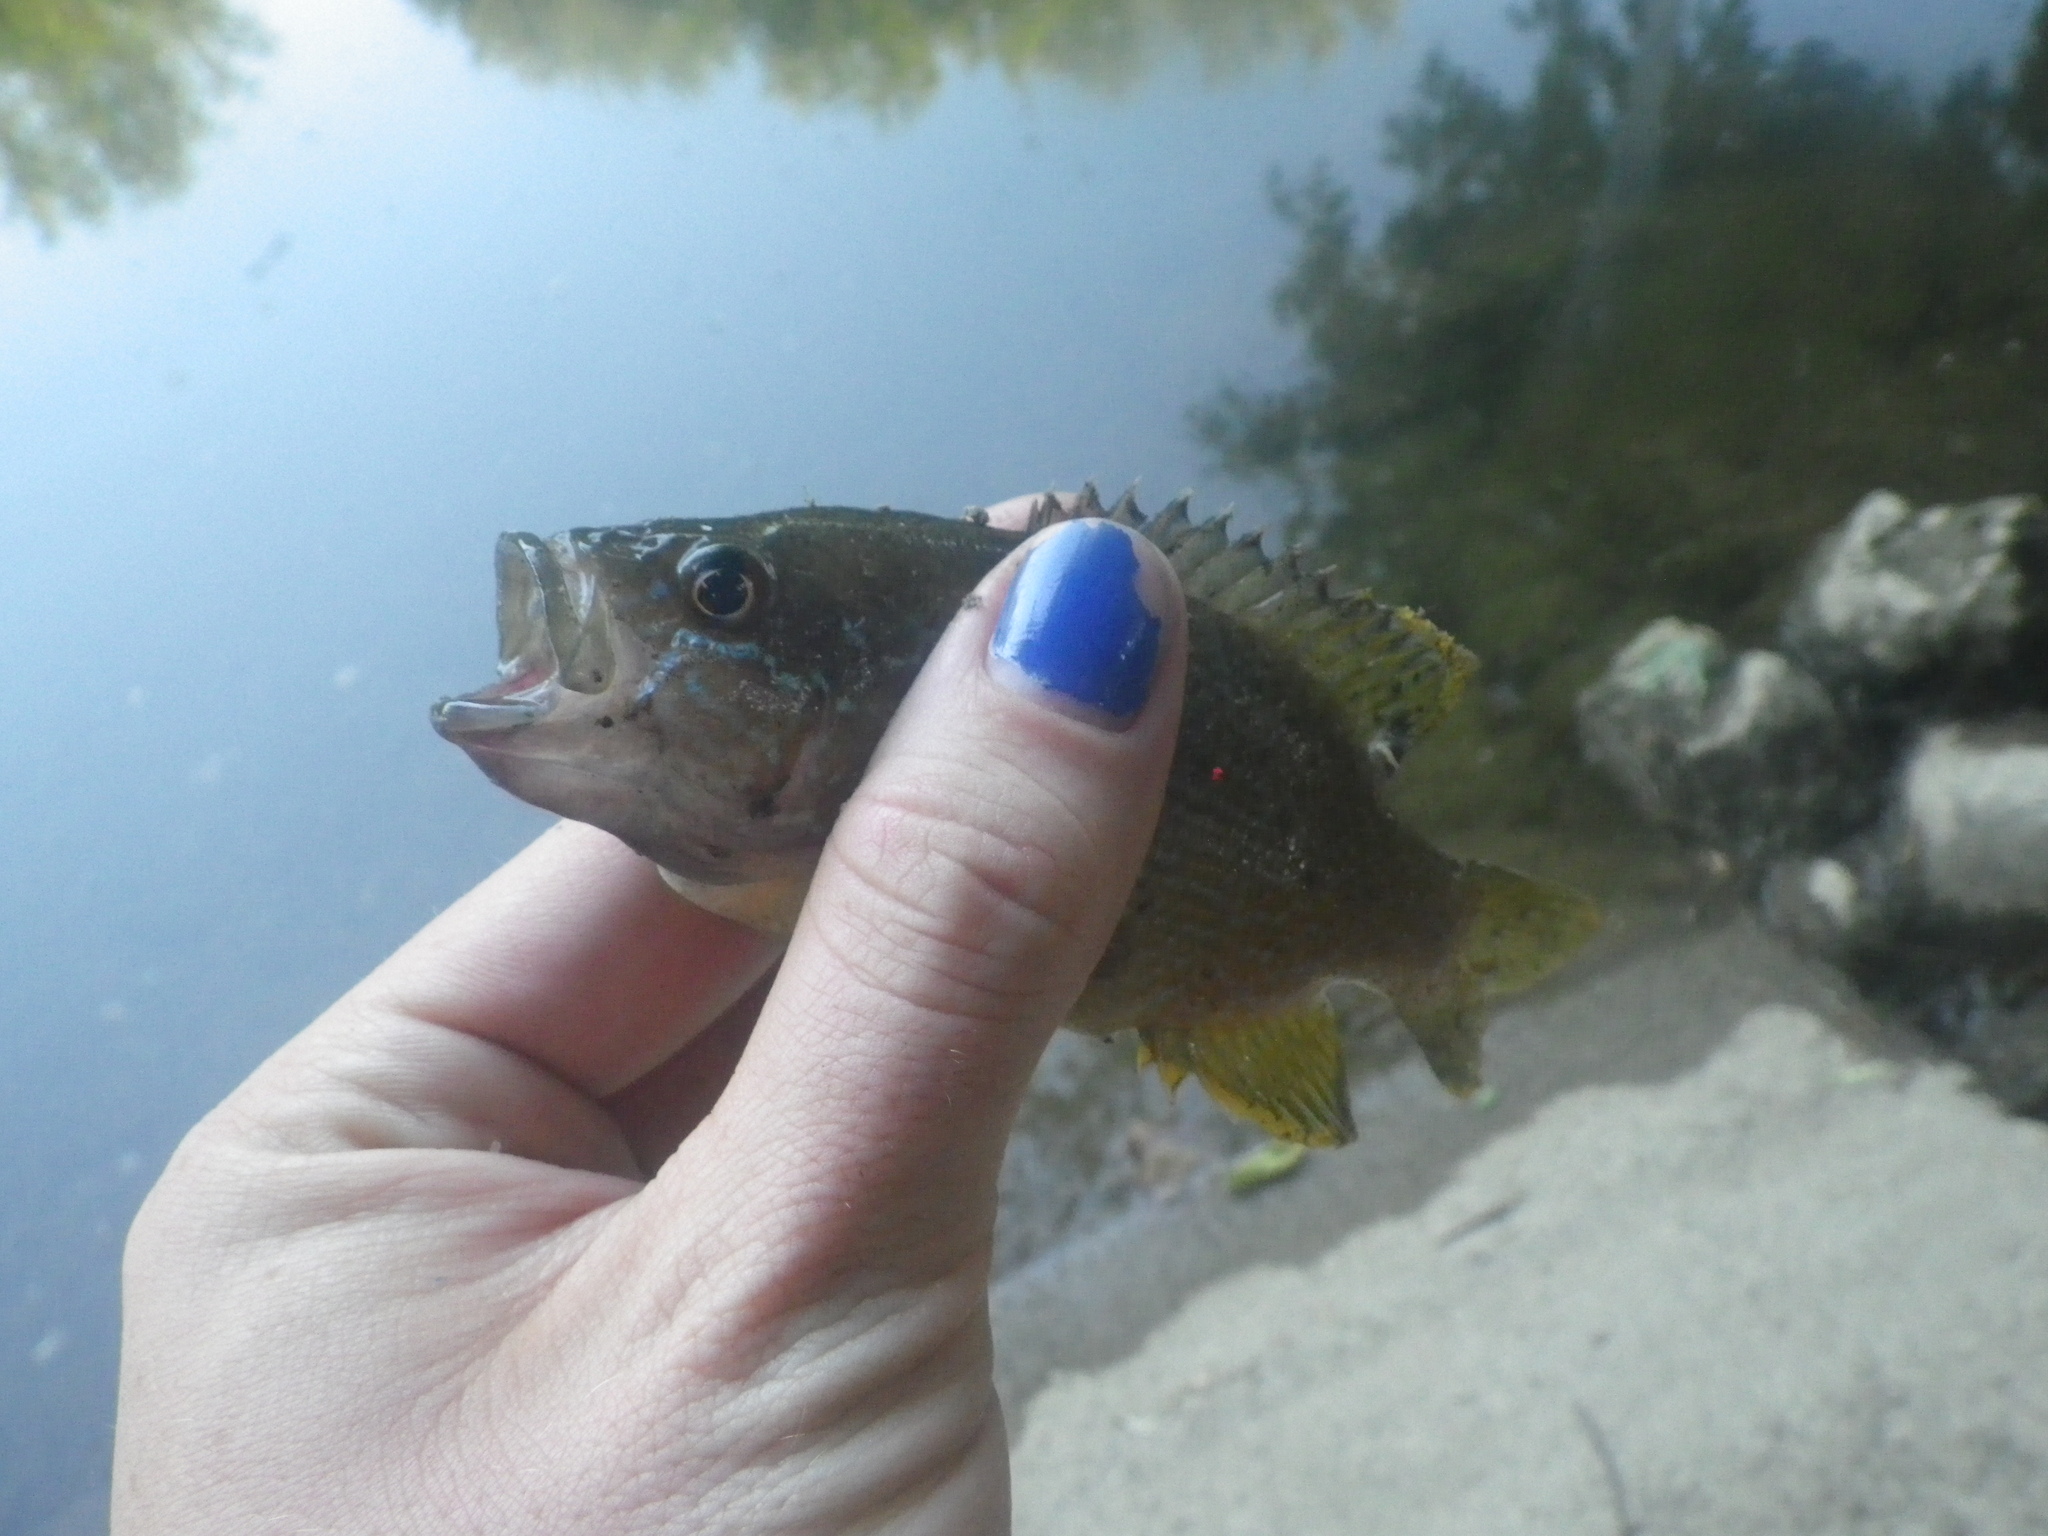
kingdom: Animalia
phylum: Chordata
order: Perciformes
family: Centrarchidae
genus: Lepomis
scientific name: Lepomis cyanellus
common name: Green sunfish
